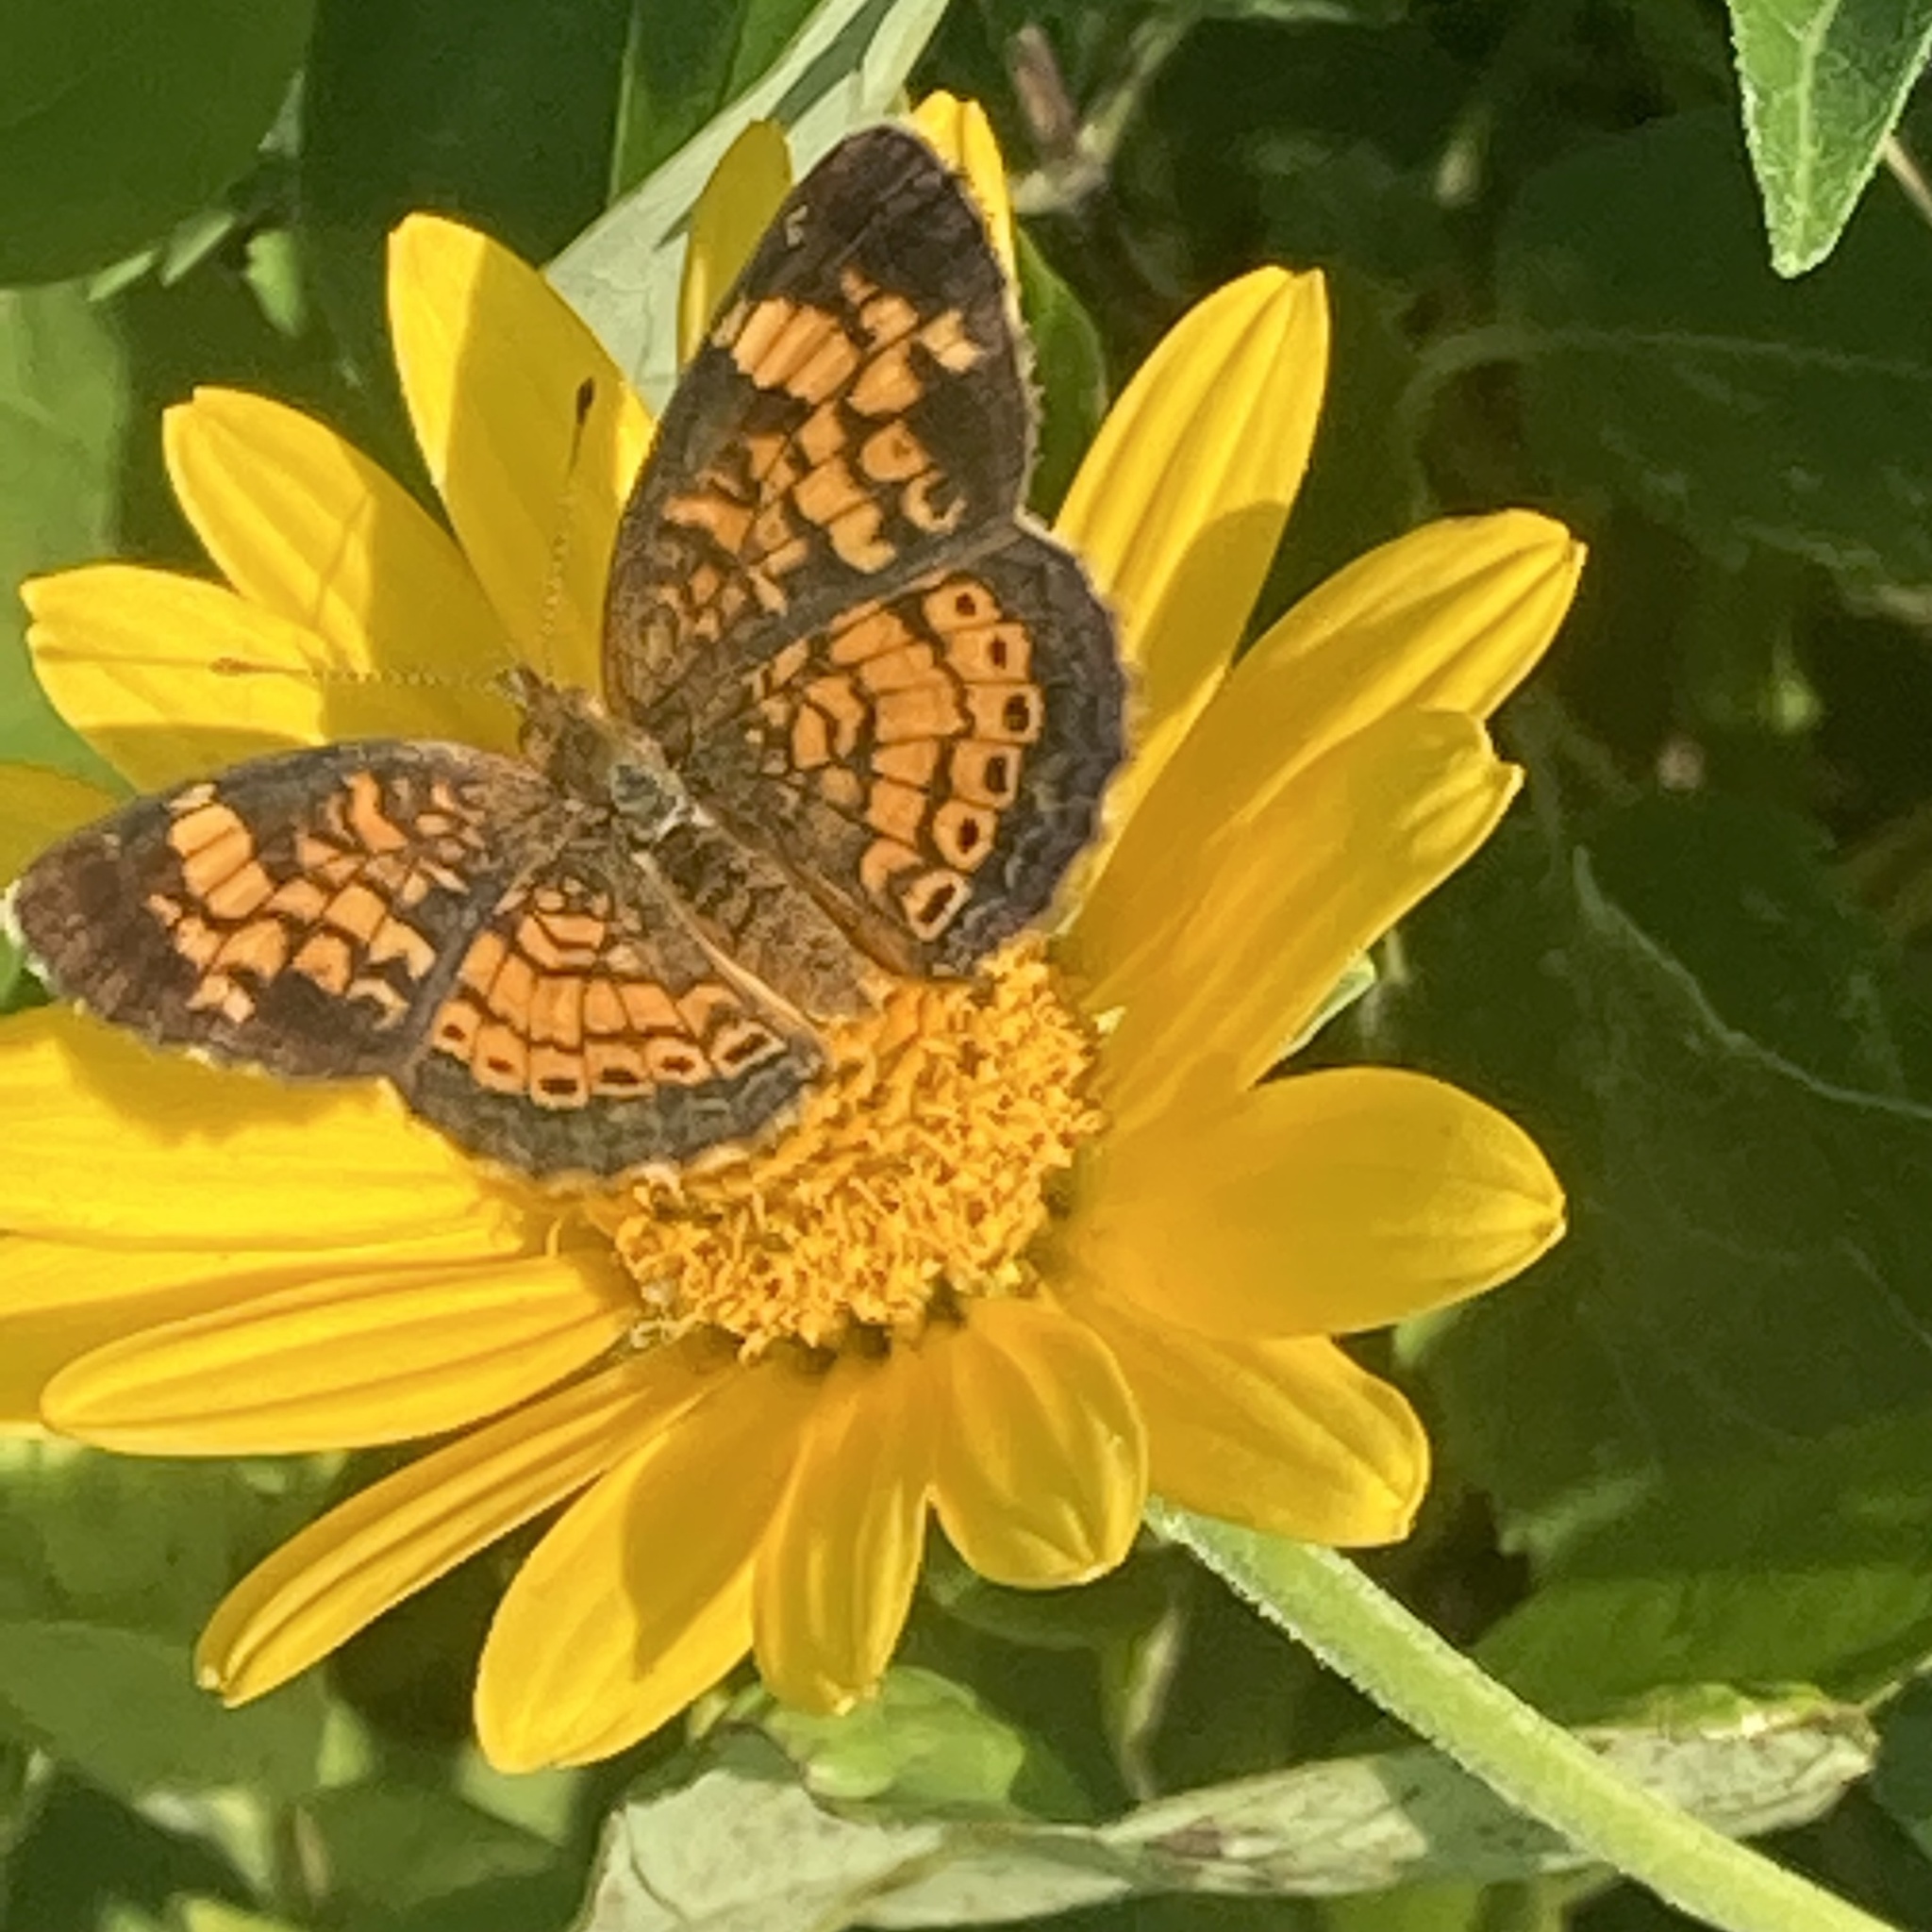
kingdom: Animalia
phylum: Arthropoda
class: Insecta
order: Lepidoptera
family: Nymphalidae
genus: Phyciodes
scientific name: Phyciodes tharos
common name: Pearl crescent
